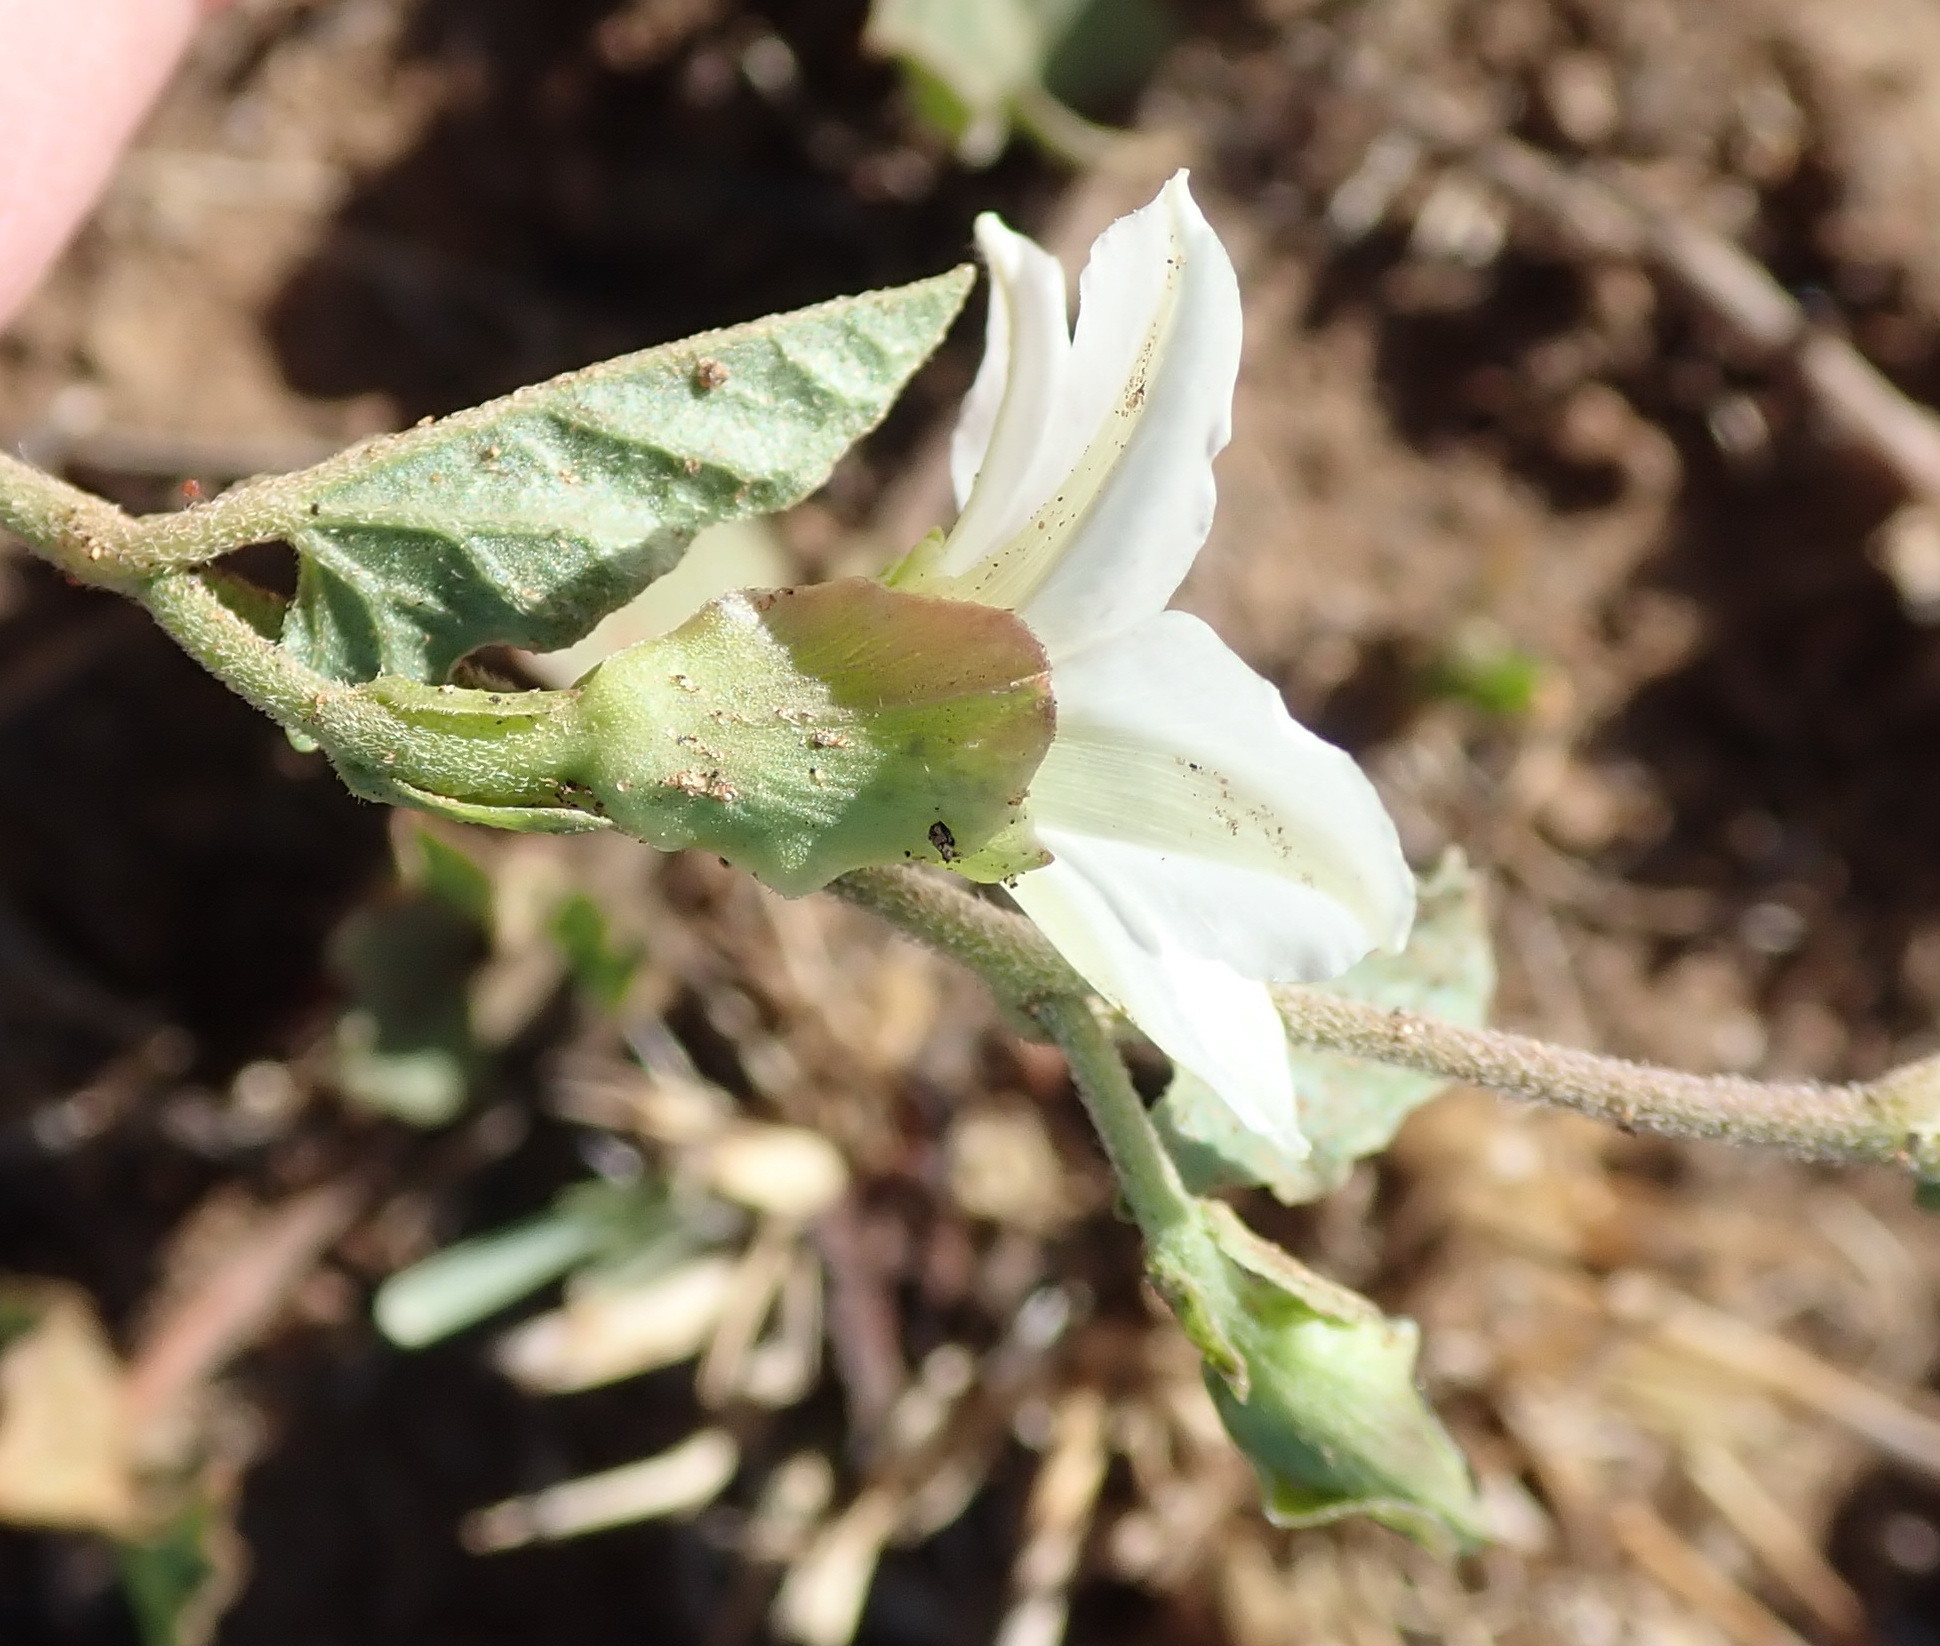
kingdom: Plantae
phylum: Tracheophyta
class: Magnoliopsida
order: Solanales
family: Convolvulaceae
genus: Convolvulus
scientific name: Convolvulus sagittatus
